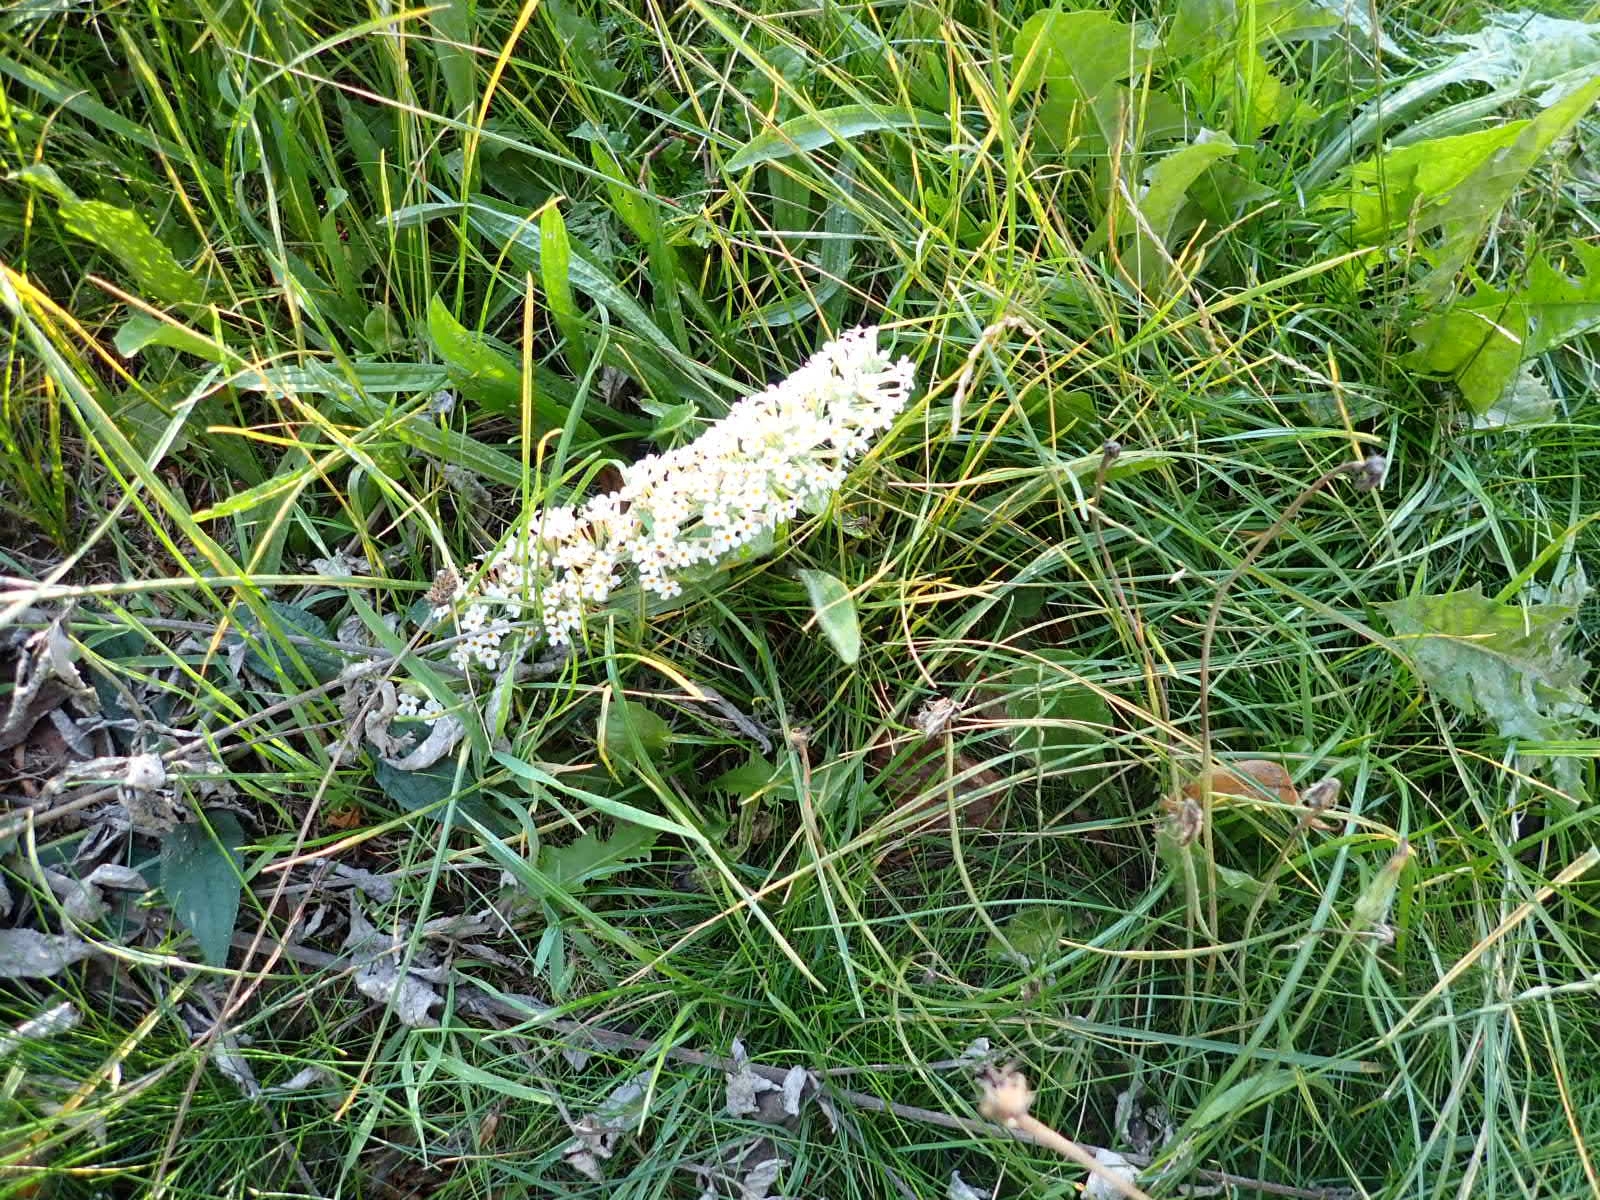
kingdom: Plantae
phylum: Tracheophyta
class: Magnoliopsida
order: Lamiales
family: Scrophulariaceae
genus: Buddleja
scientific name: Buddleja davidii
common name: Butterfly-bush
